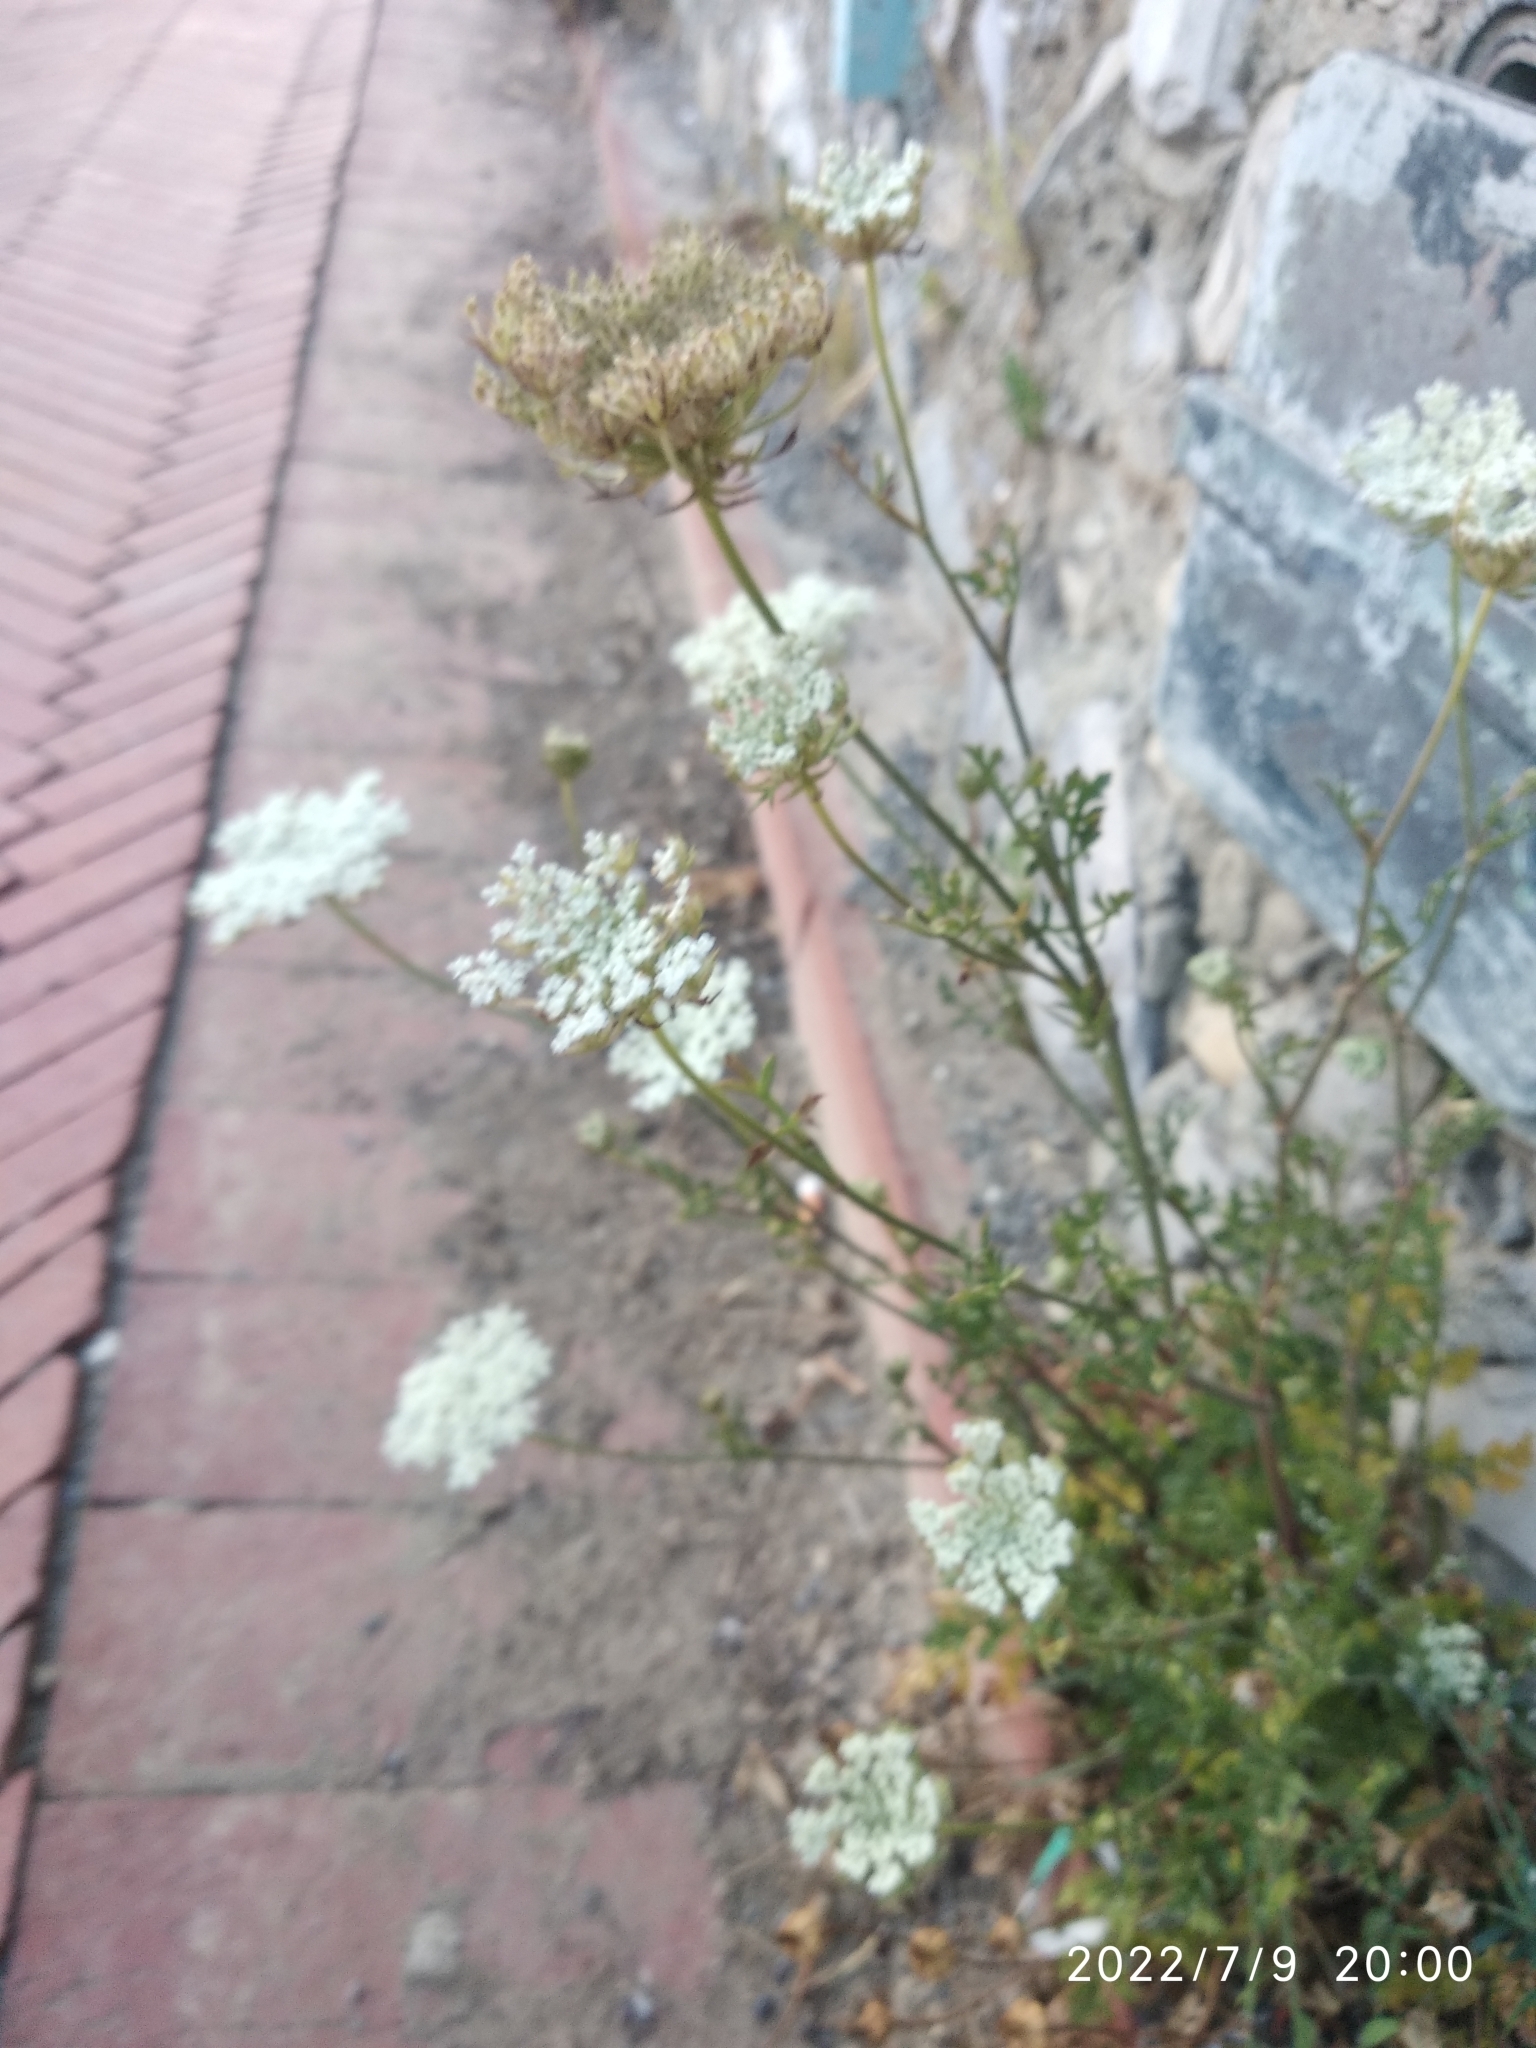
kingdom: Plantae
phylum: Tracheophyta
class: Magnoliopsida
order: Apiales
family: Apiaceae
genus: Daucus
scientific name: Daucus carota
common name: Wild carrot
